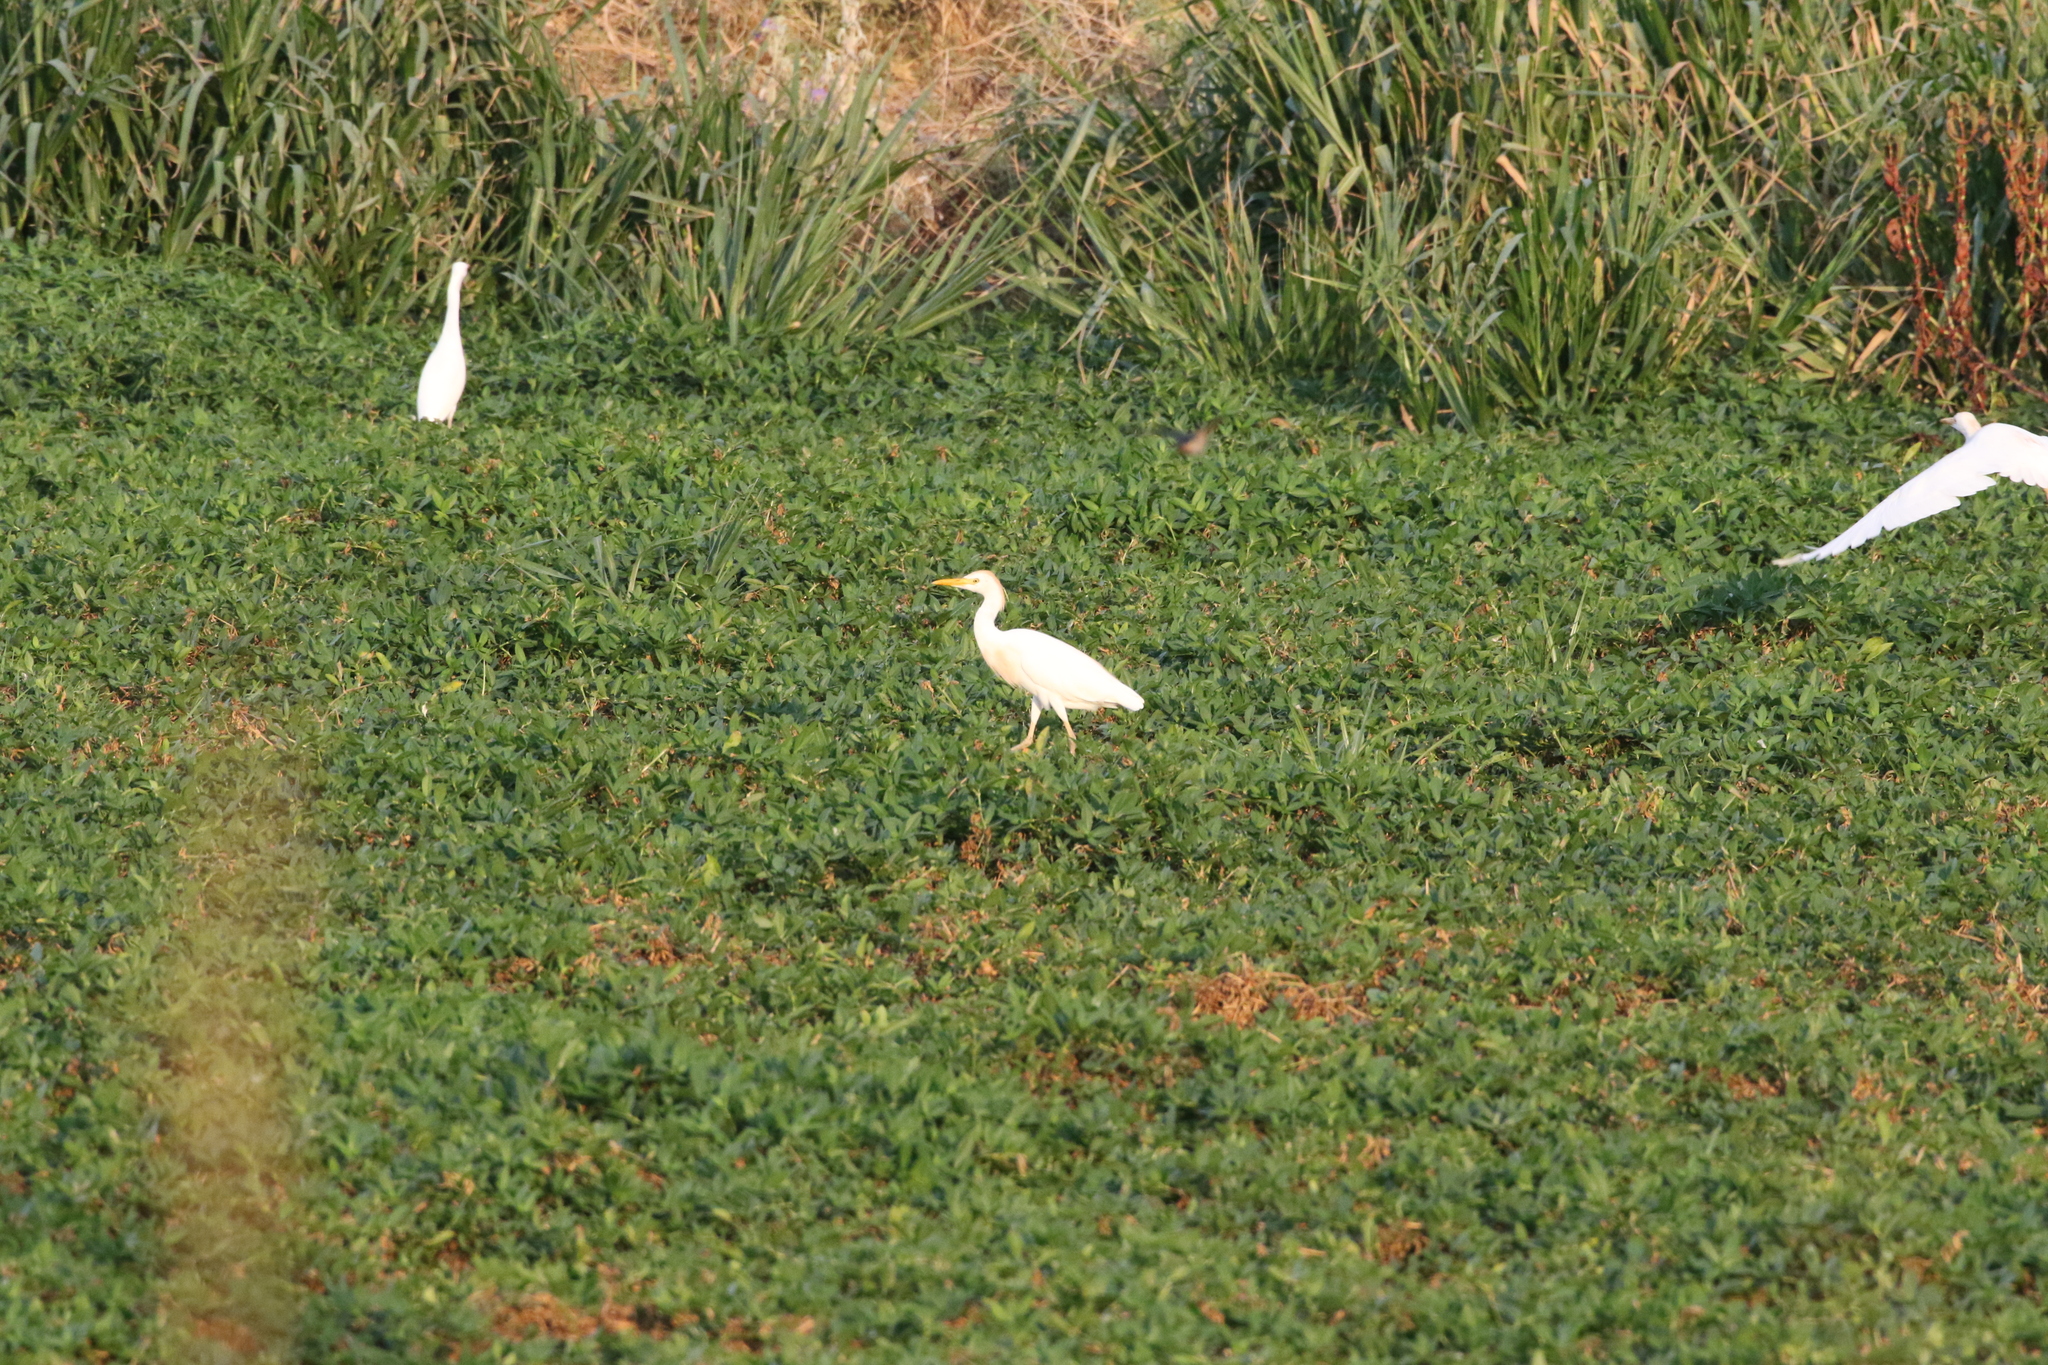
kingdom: Animalia
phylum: Chordata
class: Aves
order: Pelecaniformes
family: Ardeidae
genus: Bubulcus
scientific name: Bubulcus ibis
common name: Cattle egret
